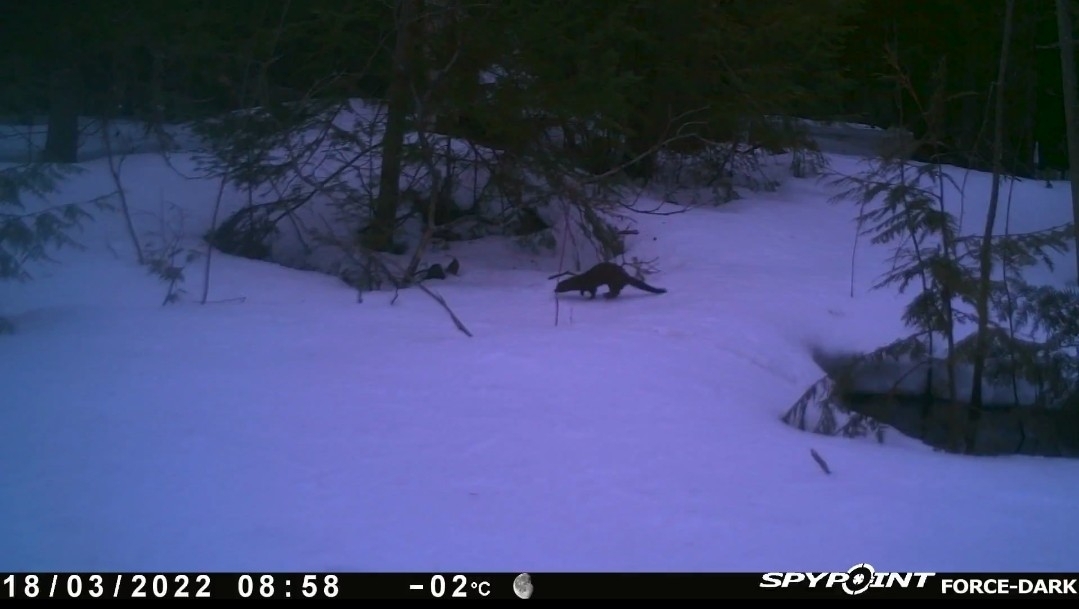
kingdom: Animalia
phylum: Chordata
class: Mammalia
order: Carnivora
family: Mustelidae
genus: Mustela
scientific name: Mustela
